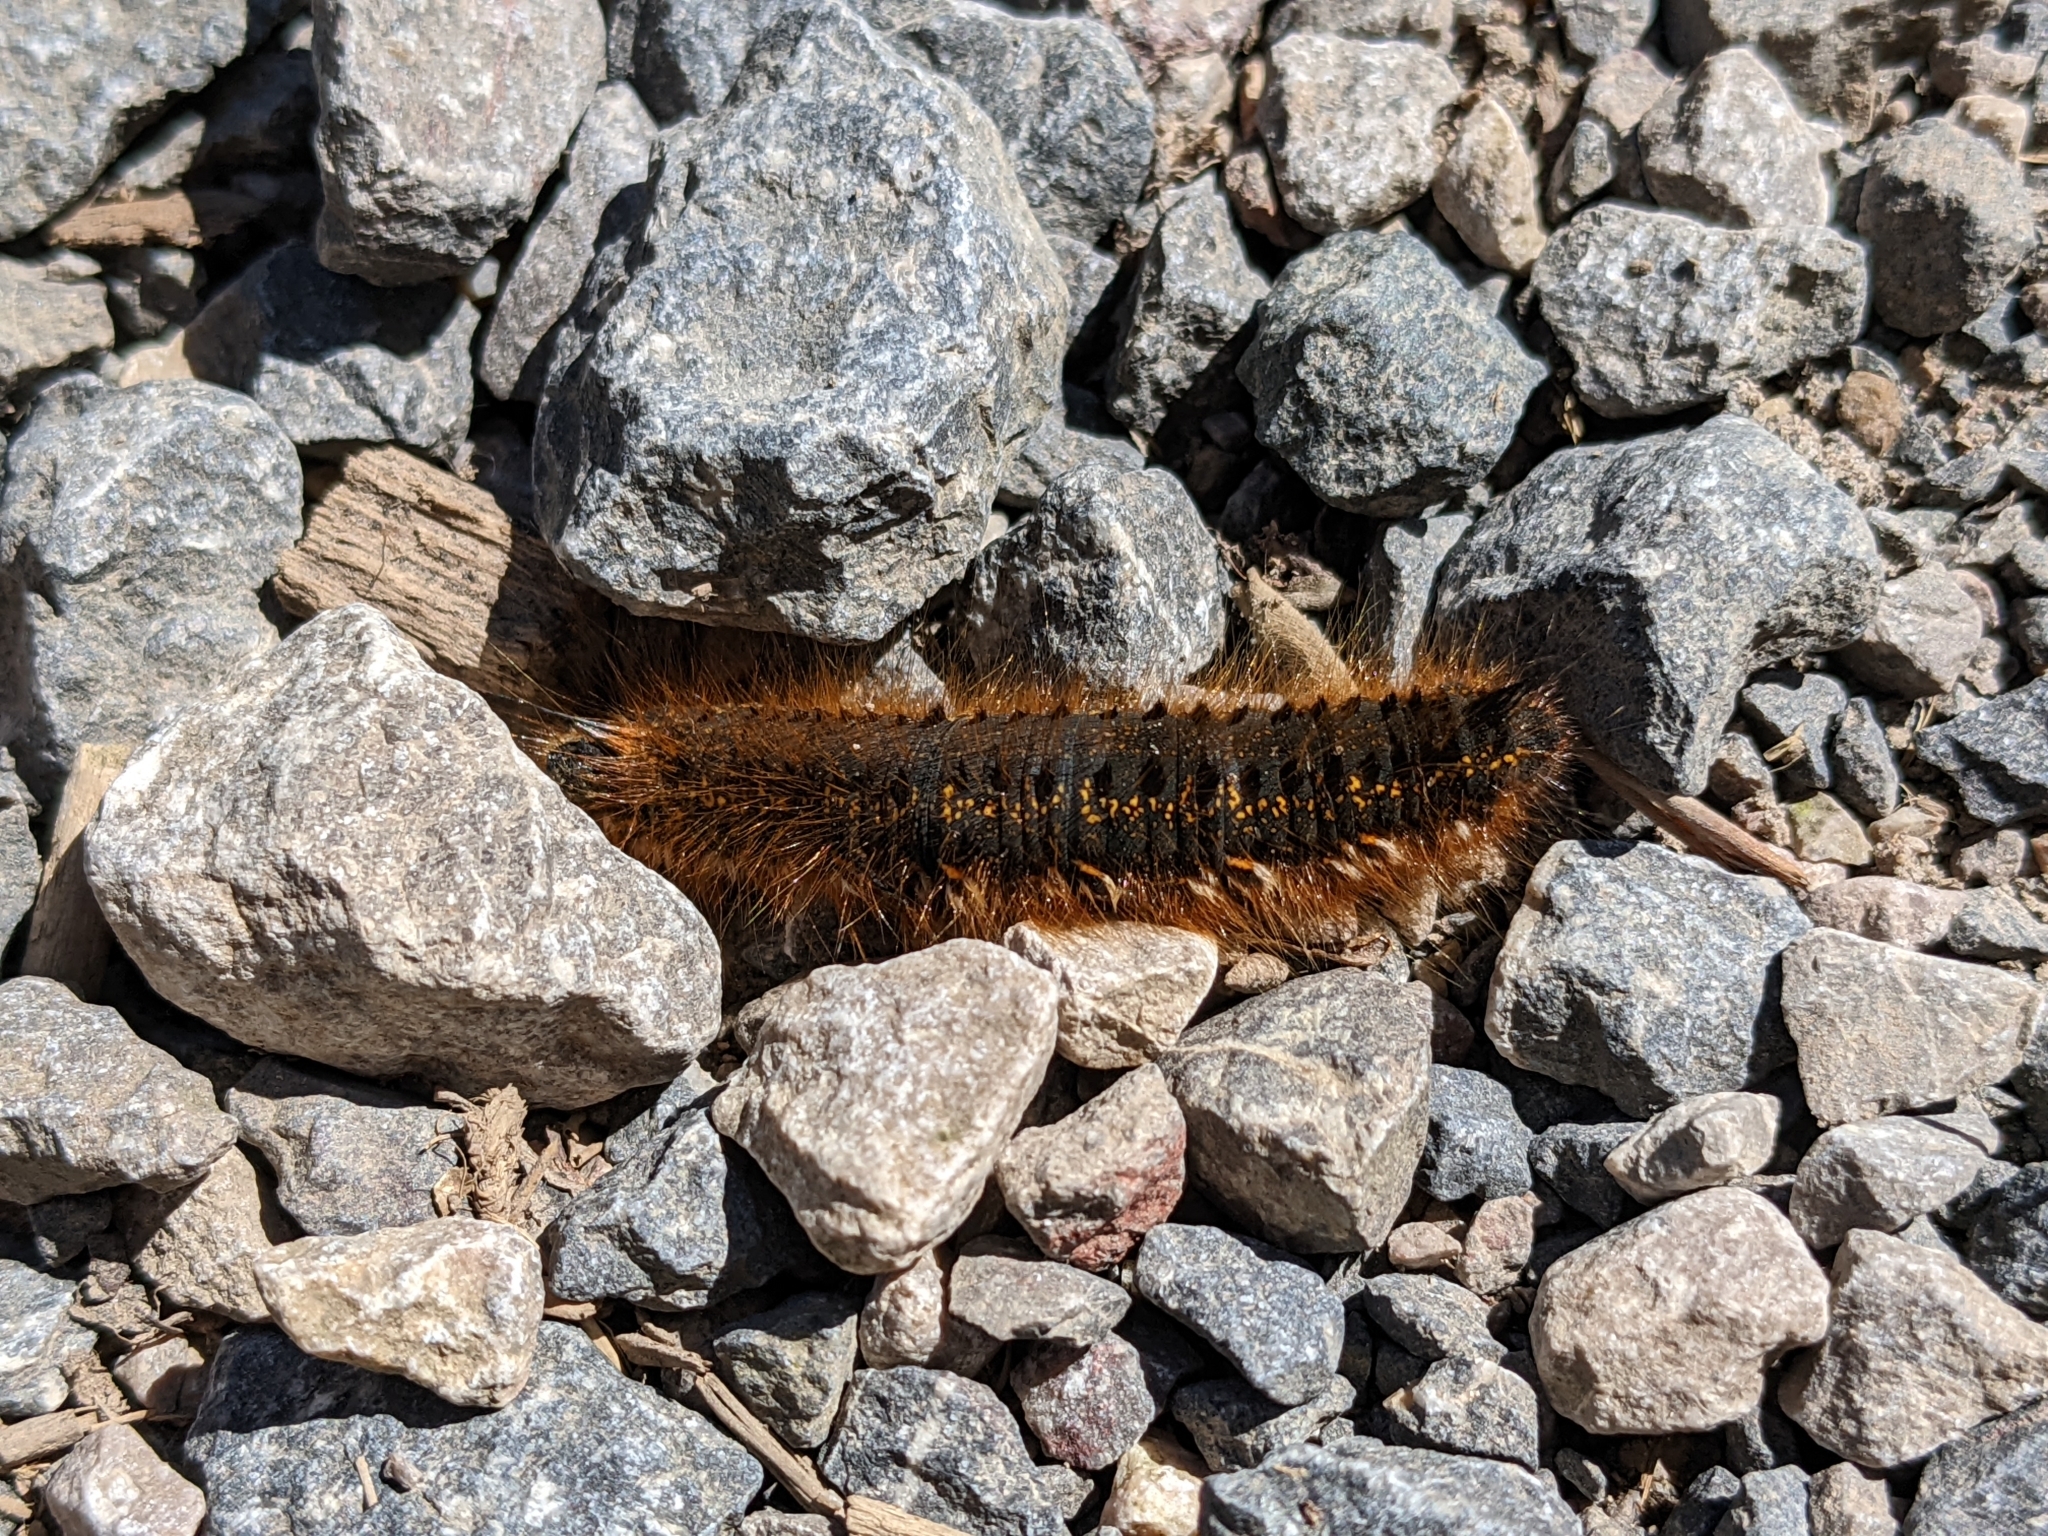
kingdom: Animalia
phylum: Arthropoda
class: Insecta
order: Lepidoptera
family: Lasiocampidae
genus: Euthrix
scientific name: Euthrix potatoria
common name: Drinker
